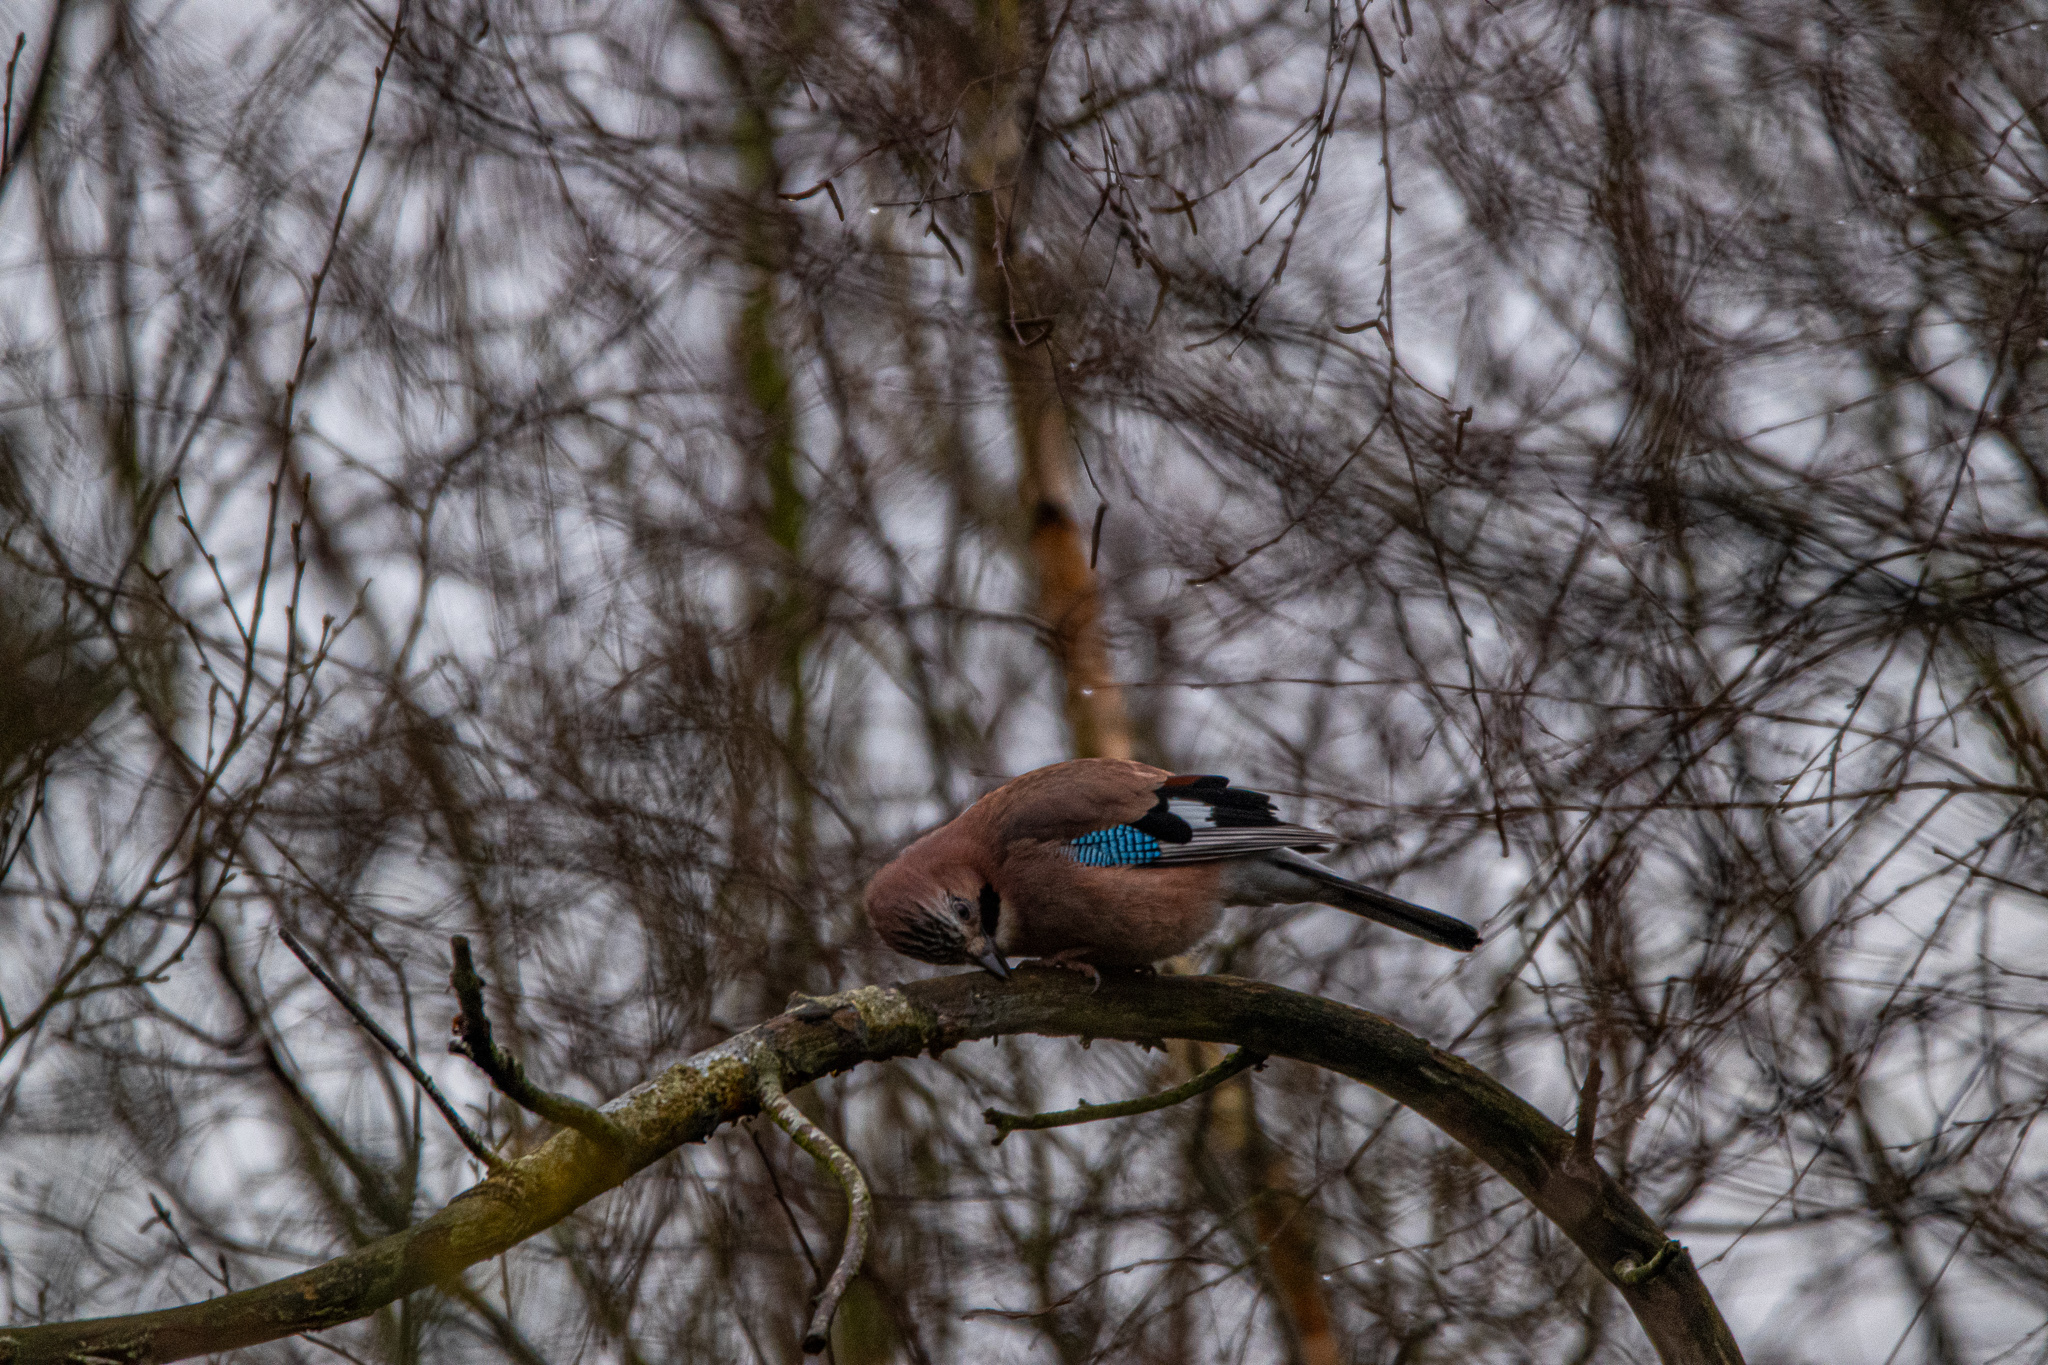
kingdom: Animalia
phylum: Chordata
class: Aves
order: Passeriformes
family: Corvidae
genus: Garrulus
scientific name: Garrulus glandarius
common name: Eurasian jay
